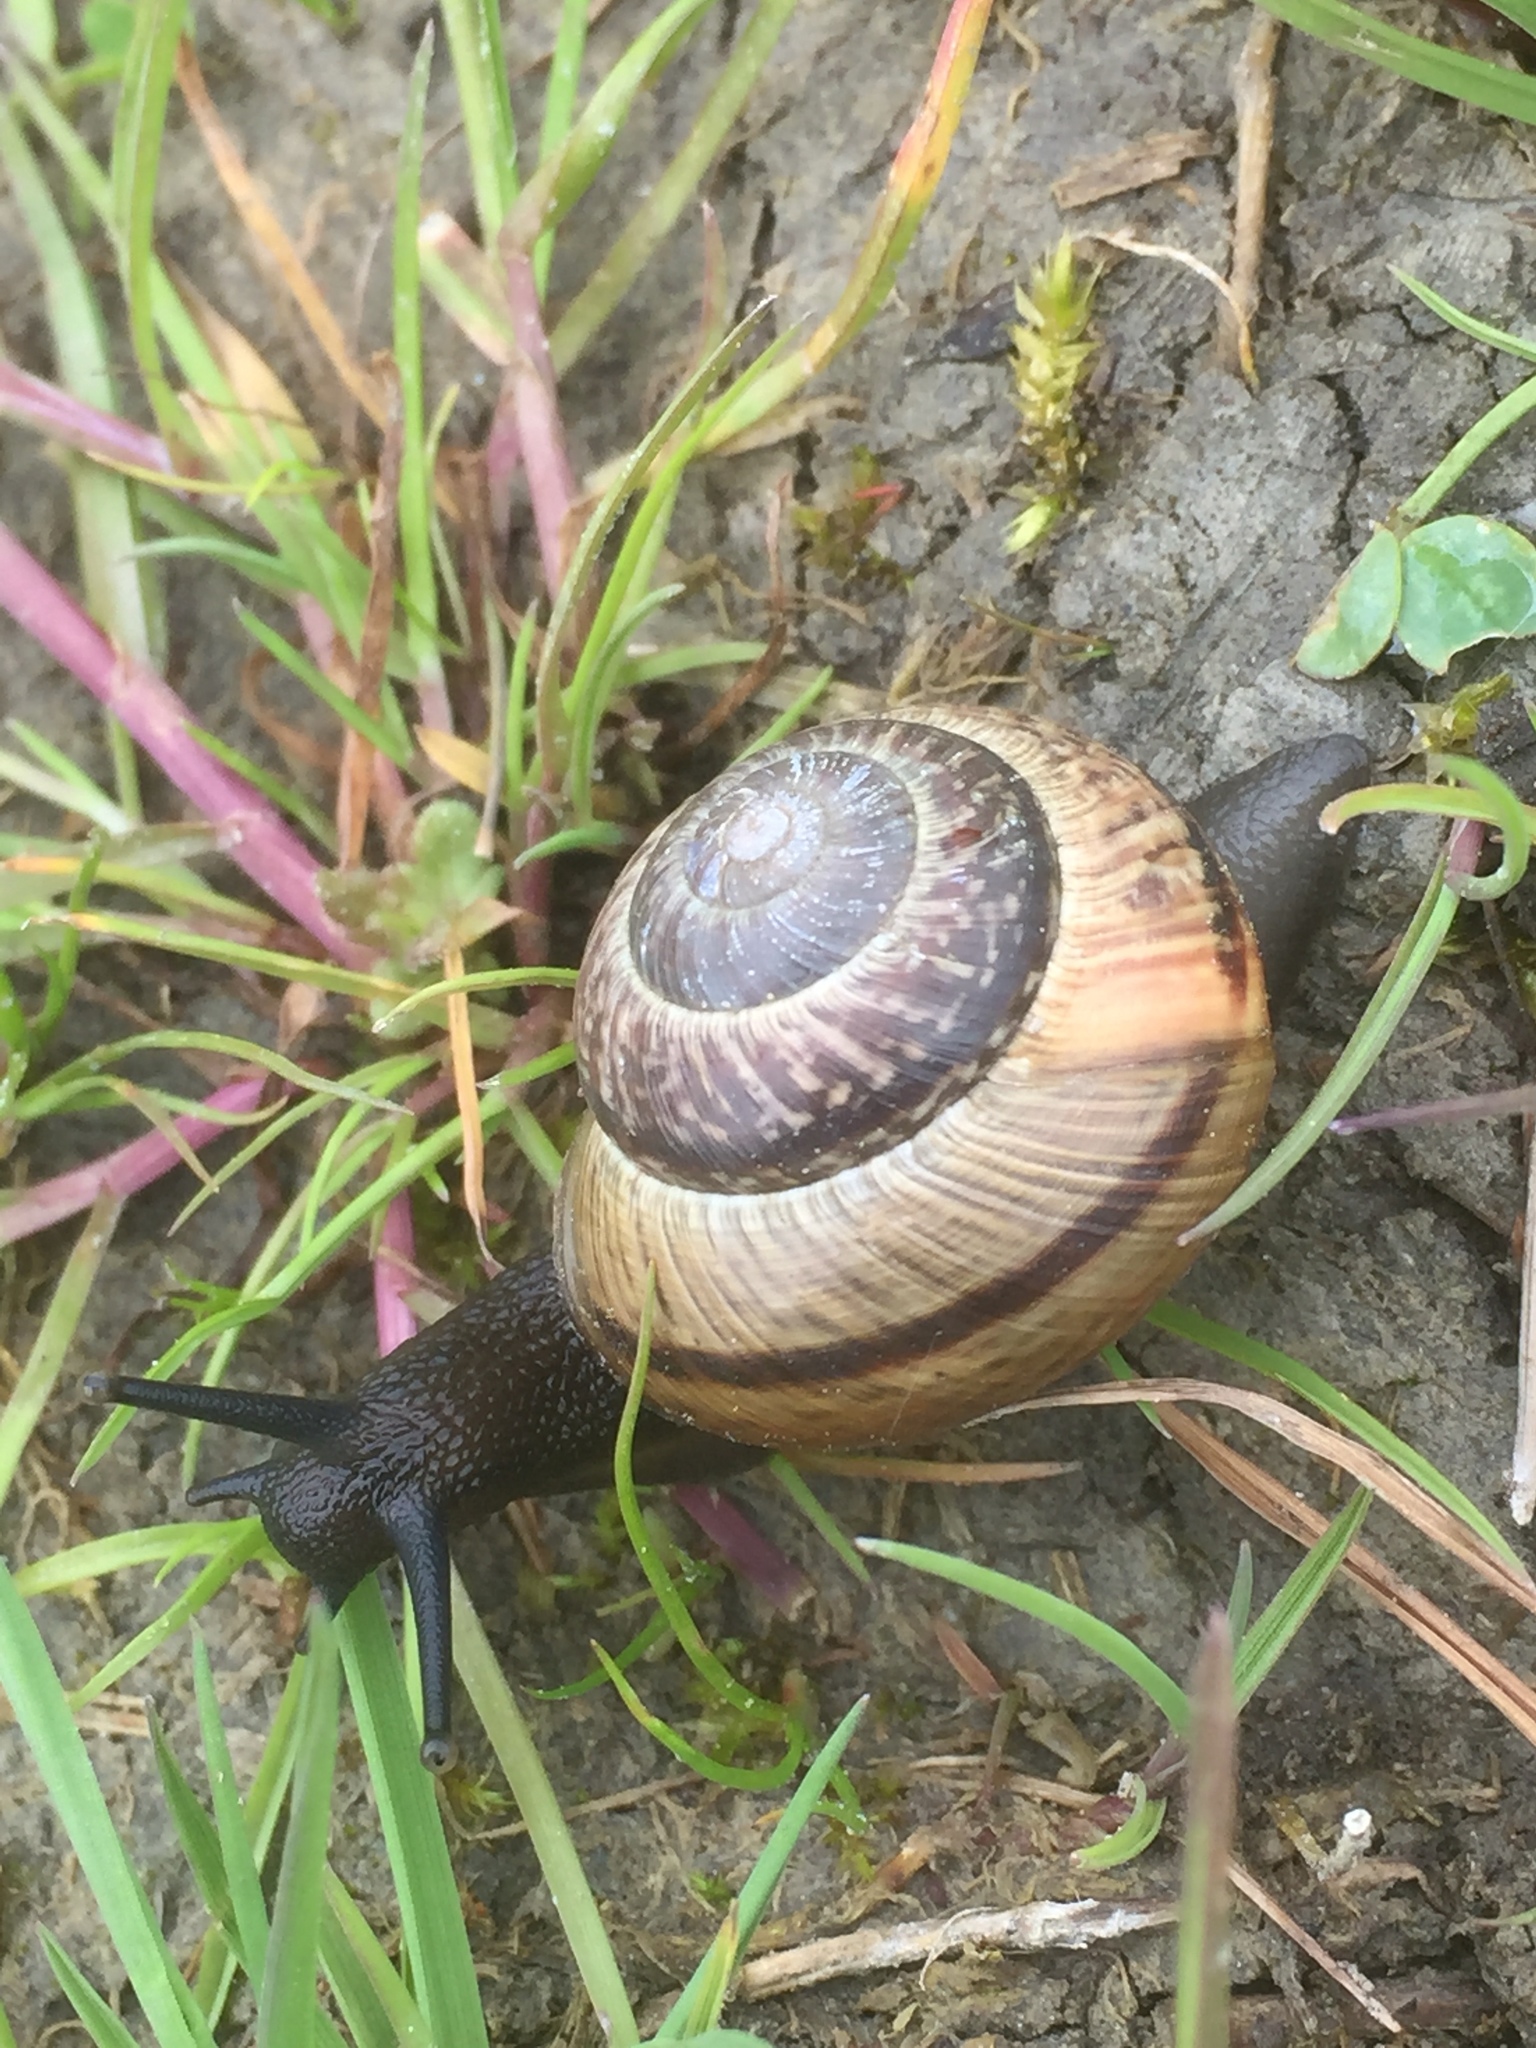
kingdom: Animalia
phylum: Mollusca
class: Gastropoda
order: Stylommatophora
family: Helicidae
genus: Arianta
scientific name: Arianta arbustorum
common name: Copse snail
